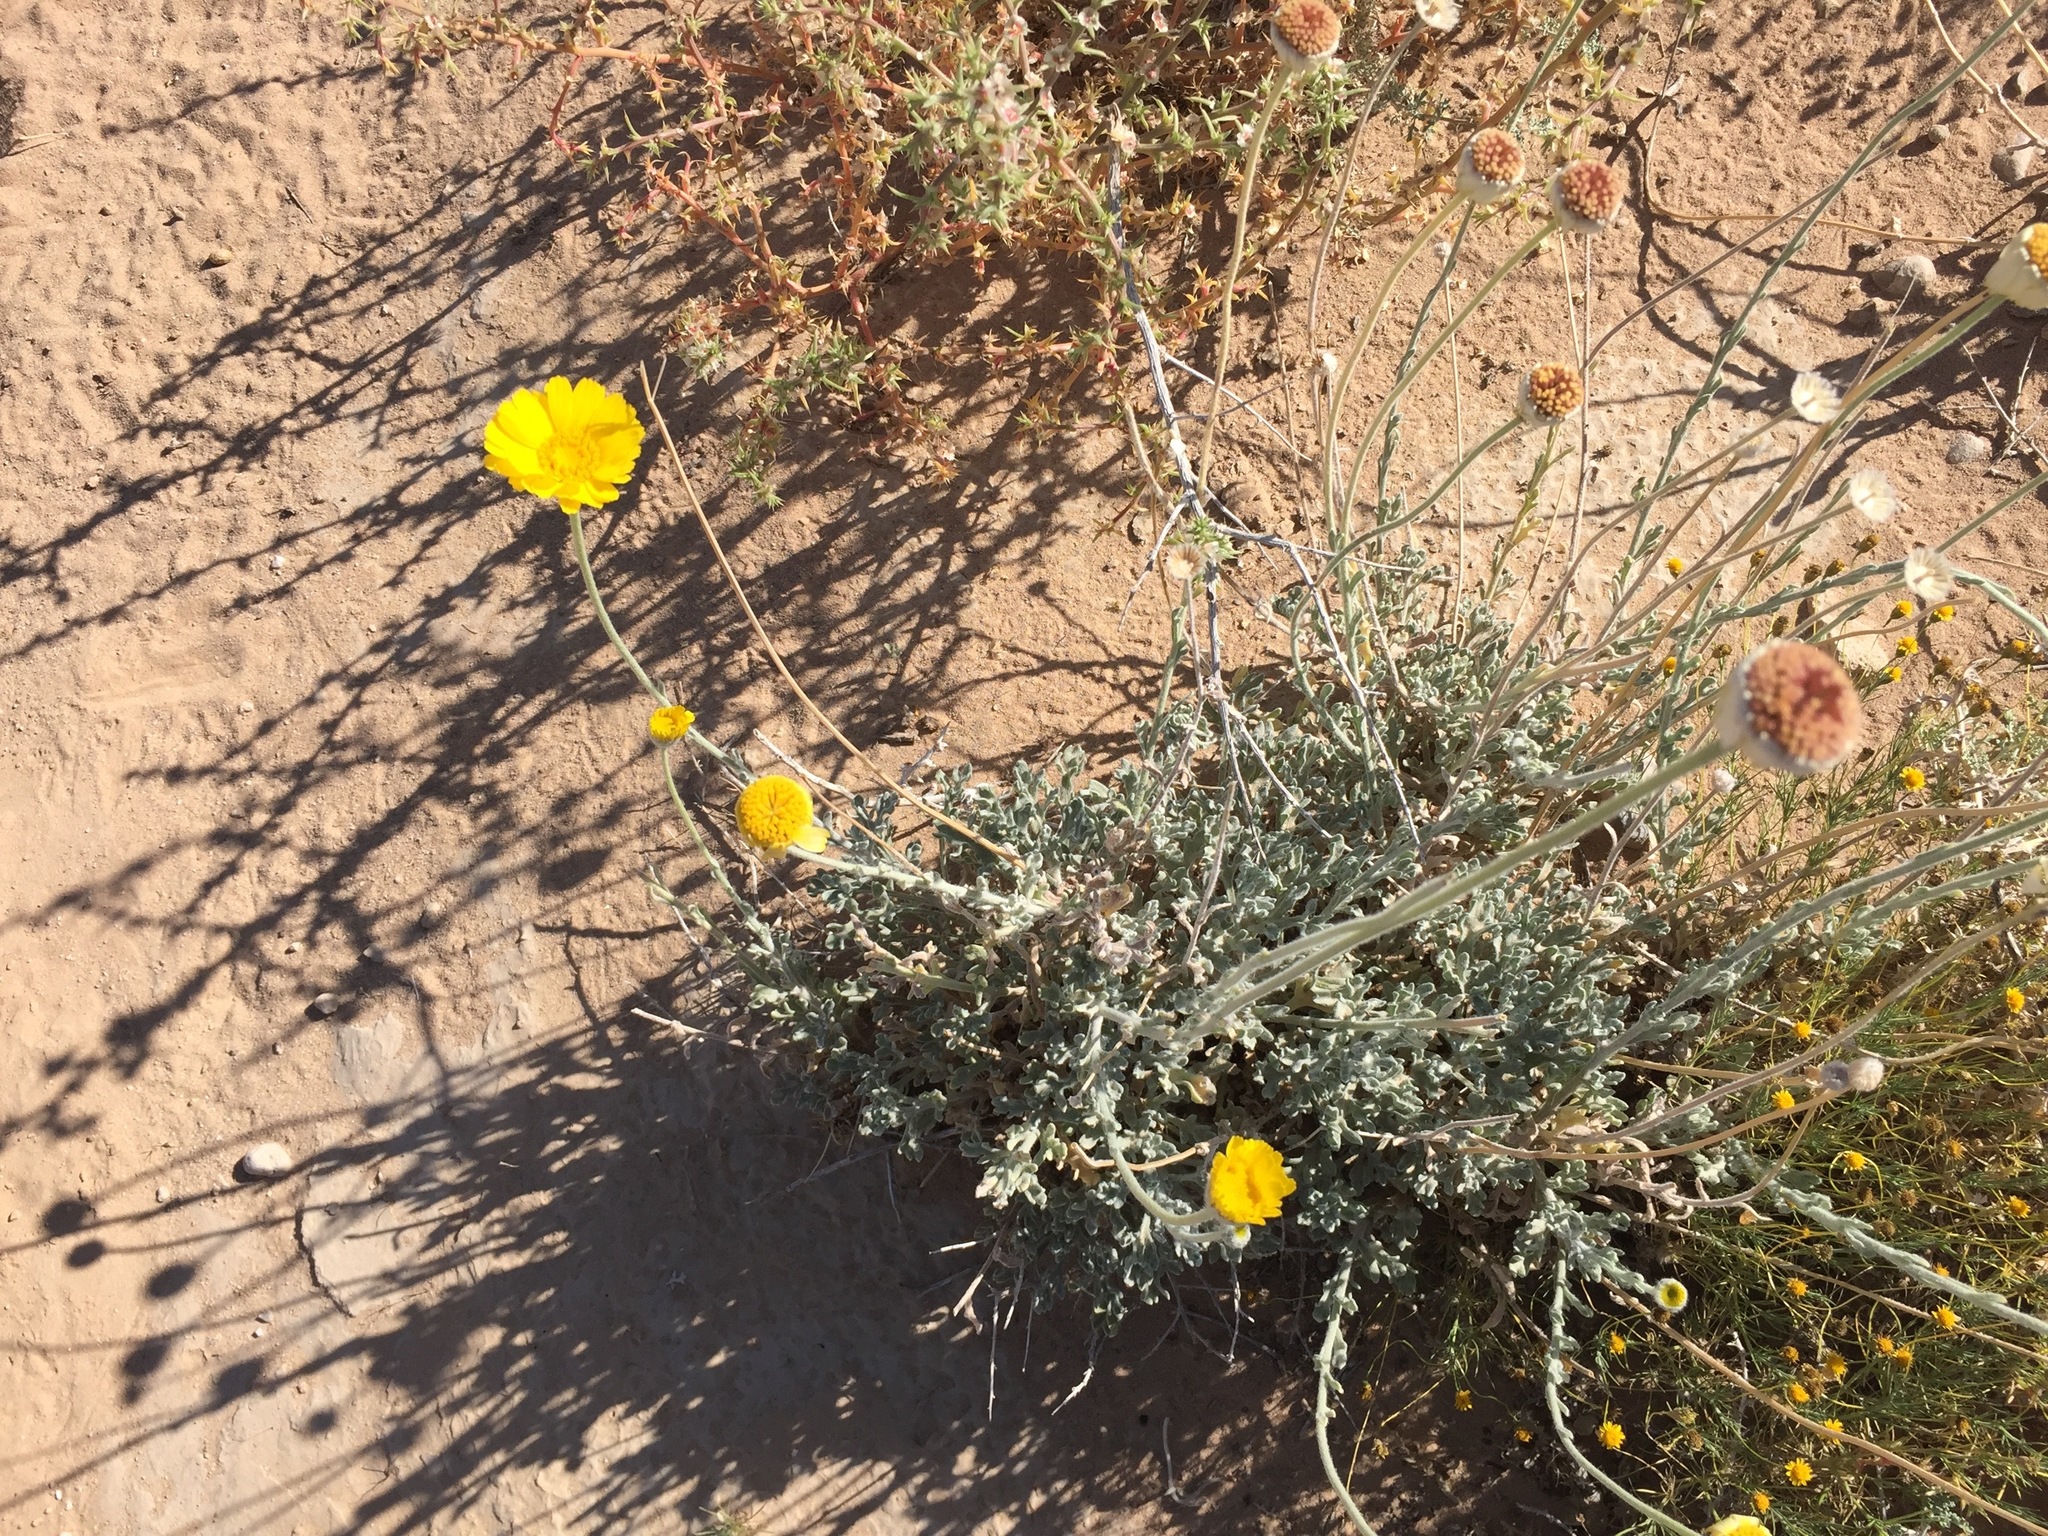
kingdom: Plantae
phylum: Tracheophyta
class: Magnoliopsida
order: Asterales
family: Asteraceae
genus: Baileya
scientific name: Baileya multiradiata
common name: Desert-marigold
